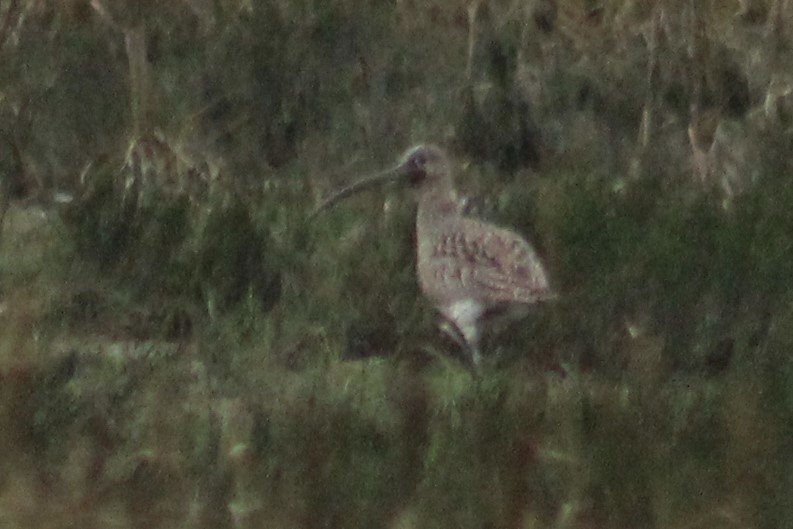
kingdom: Animalia
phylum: Chordata
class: Aves
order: Charadriiformes
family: Scolopacidae
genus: Numenius
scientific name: Numenius arquata
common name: Eurasian curlew
